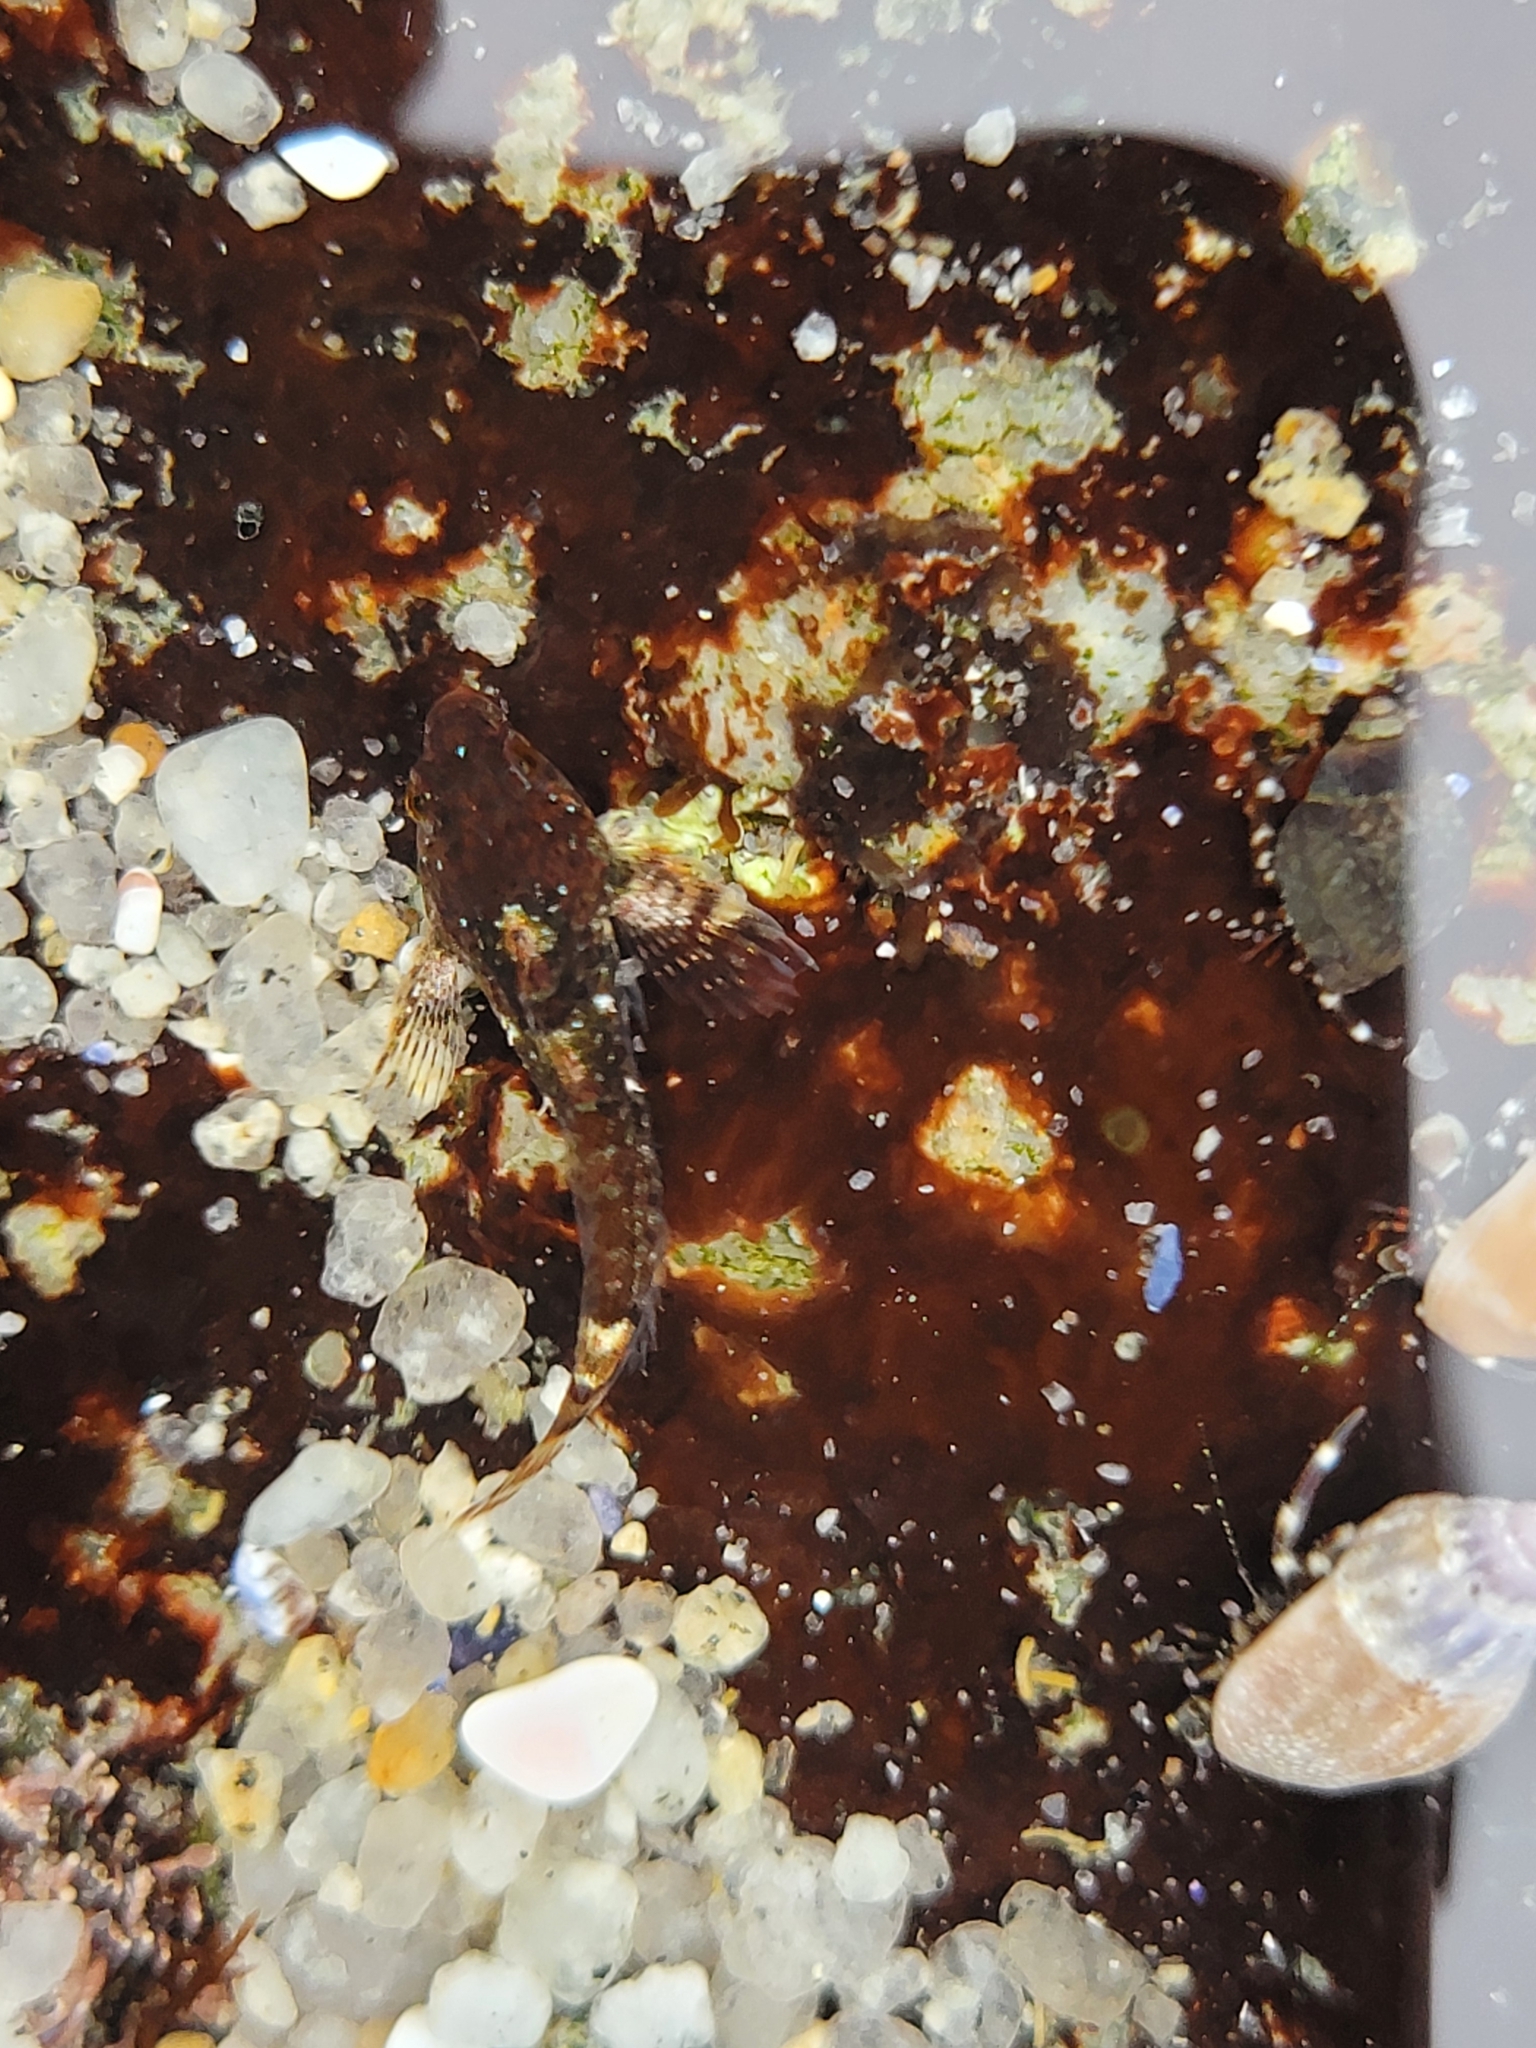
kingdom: Animalia
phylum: Chordata
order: Scorpaeniformes
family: Cottidae
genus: Clinocottus
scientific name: Clinocottus analis
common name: Woolly sculpin
